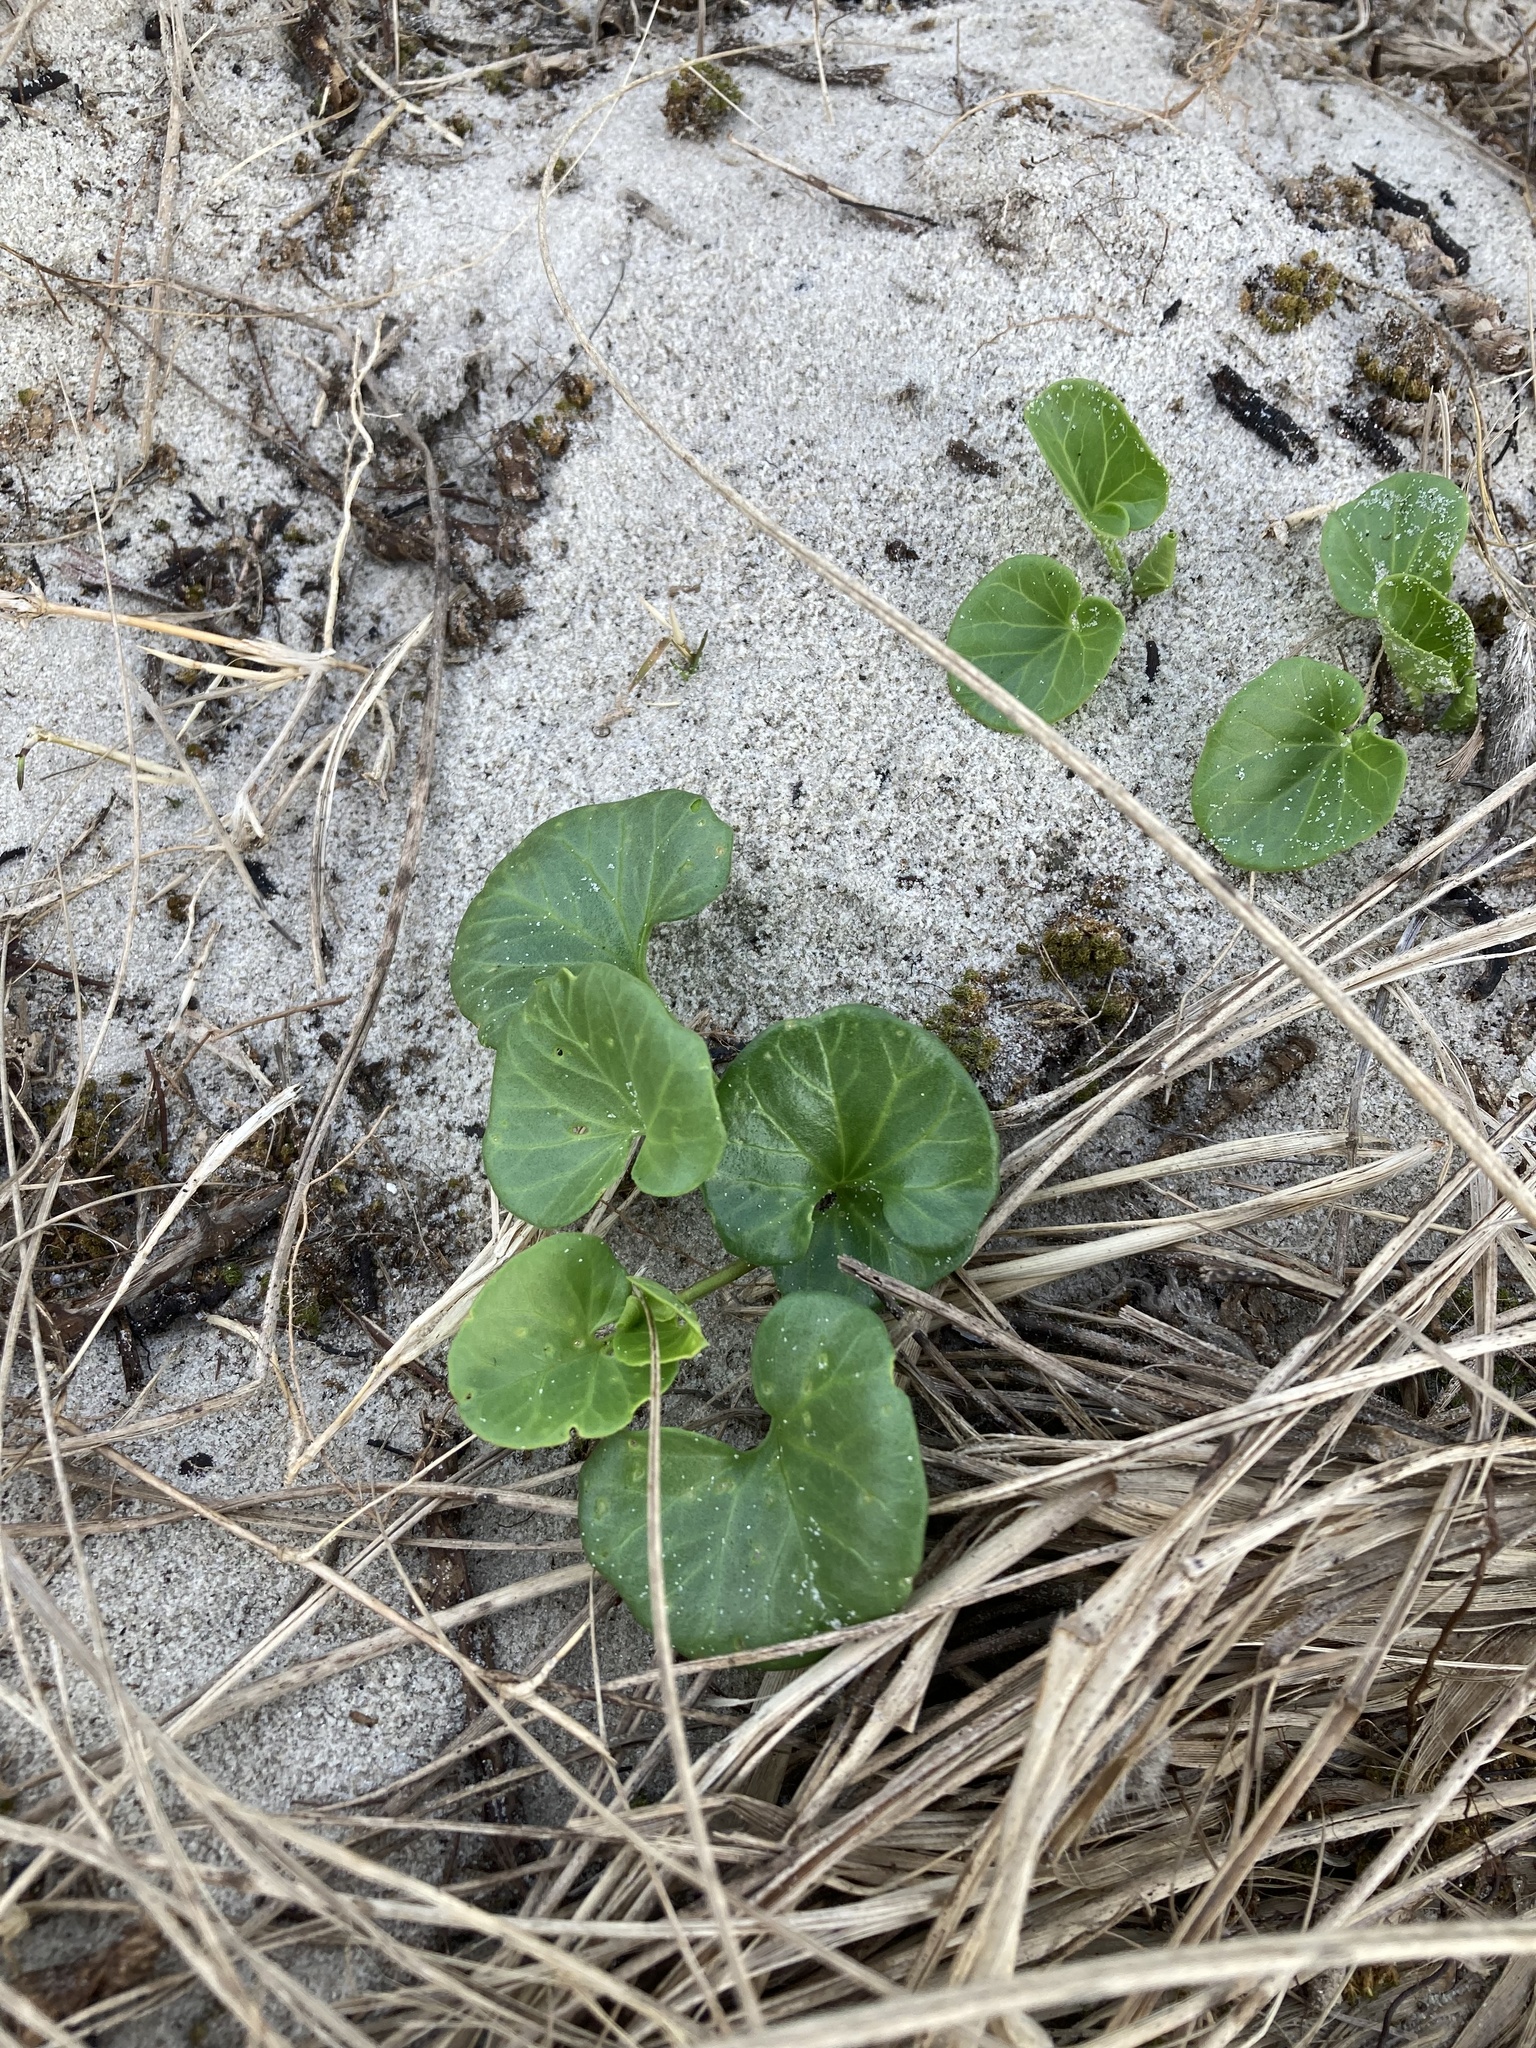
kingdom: Plantae
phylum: Tracheophyta
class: Magnoliopsida
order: Solanales
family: Convolvulaceae
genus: Calystegia
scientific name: Calystegia soldanella
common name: Sea bindweed
